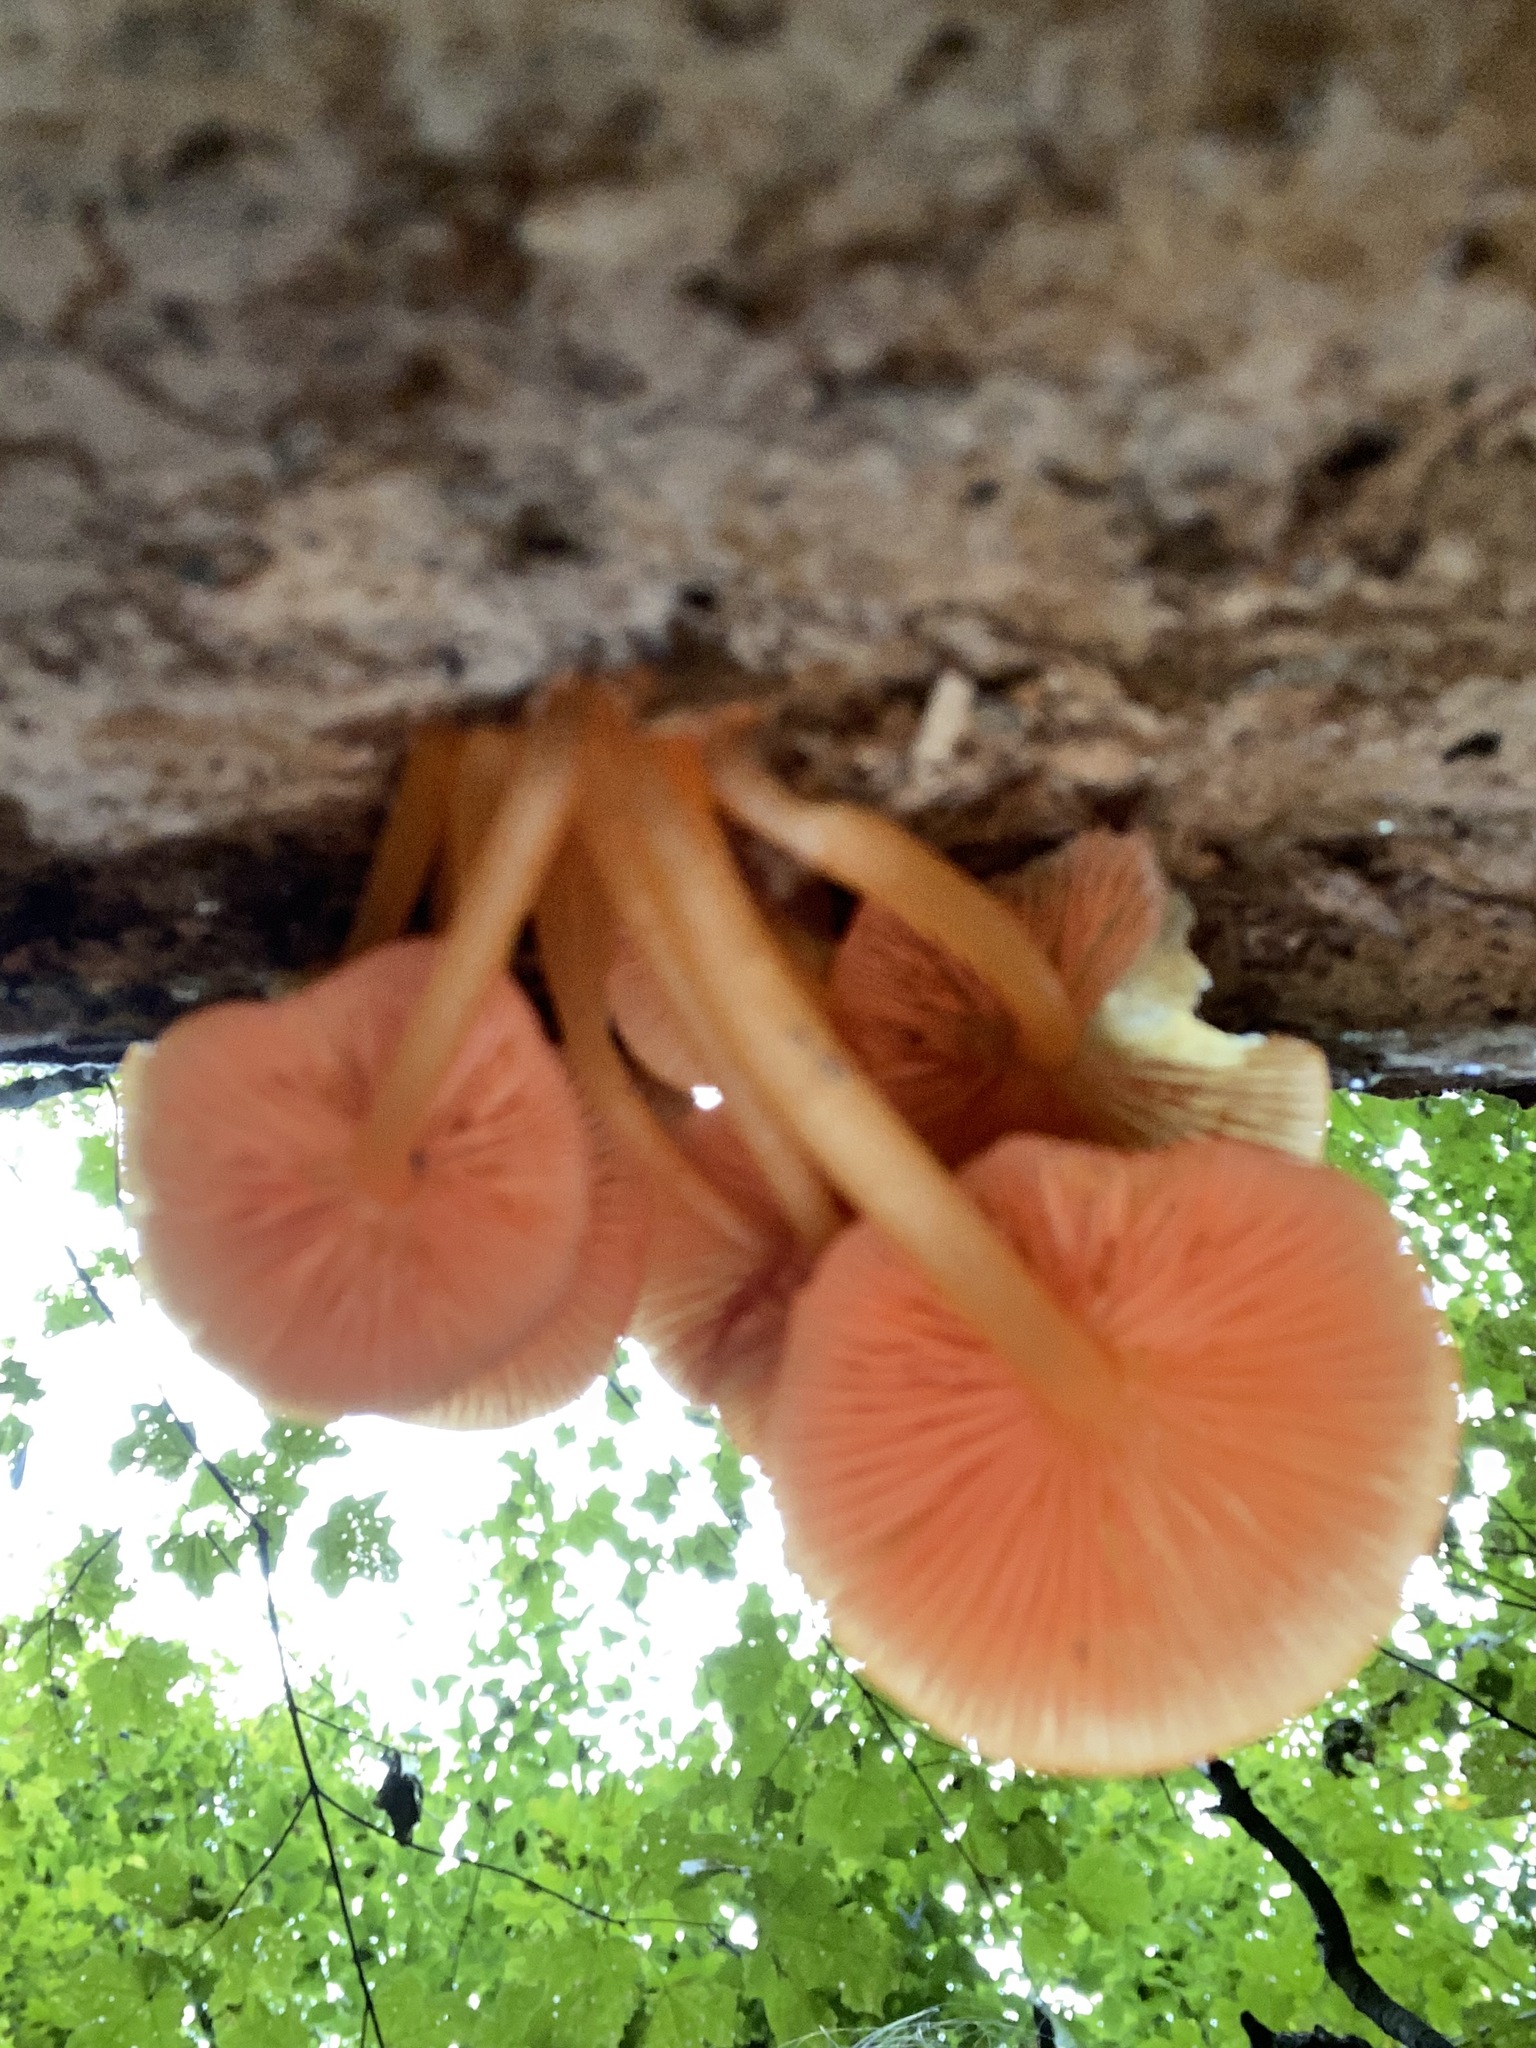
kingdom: Fungi
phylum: Basidiomycota
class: Agaricomycetes
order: Agaricales
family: Mycenaceae
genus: Mycena
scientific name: Mycena leaiana
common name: Orange mycena
